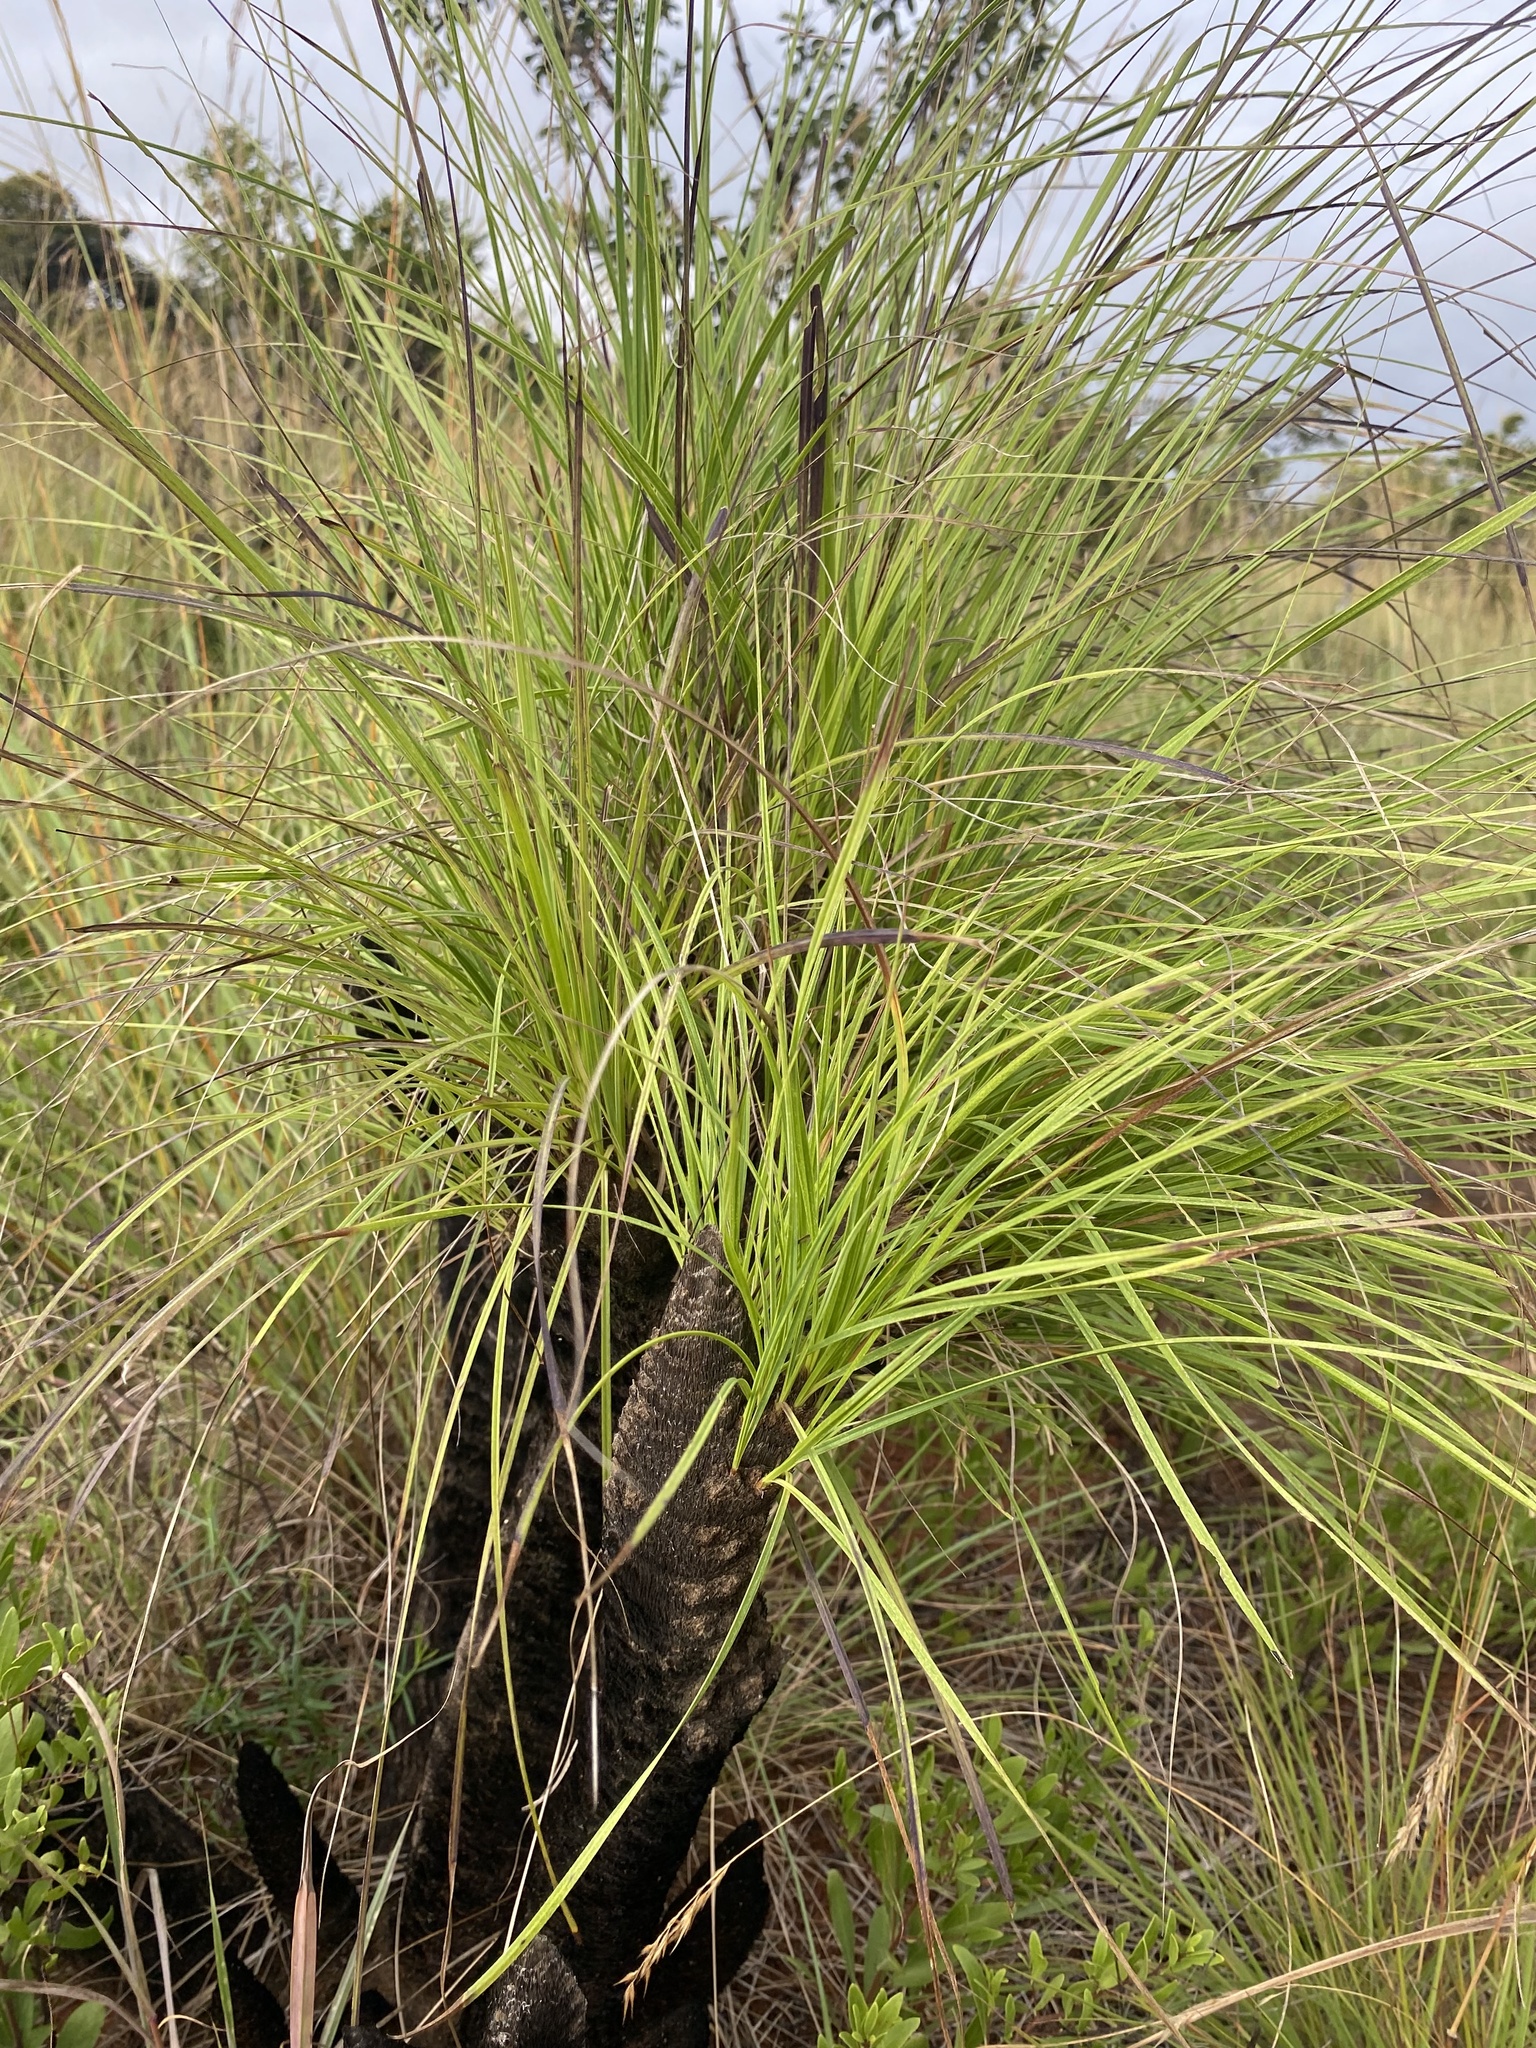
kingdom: Plantae
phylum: Tracheophyta
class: Liliopsida
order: Pandanales
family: Velloziaceae
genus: Xerophyta
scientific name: Xerophyta retinervis
